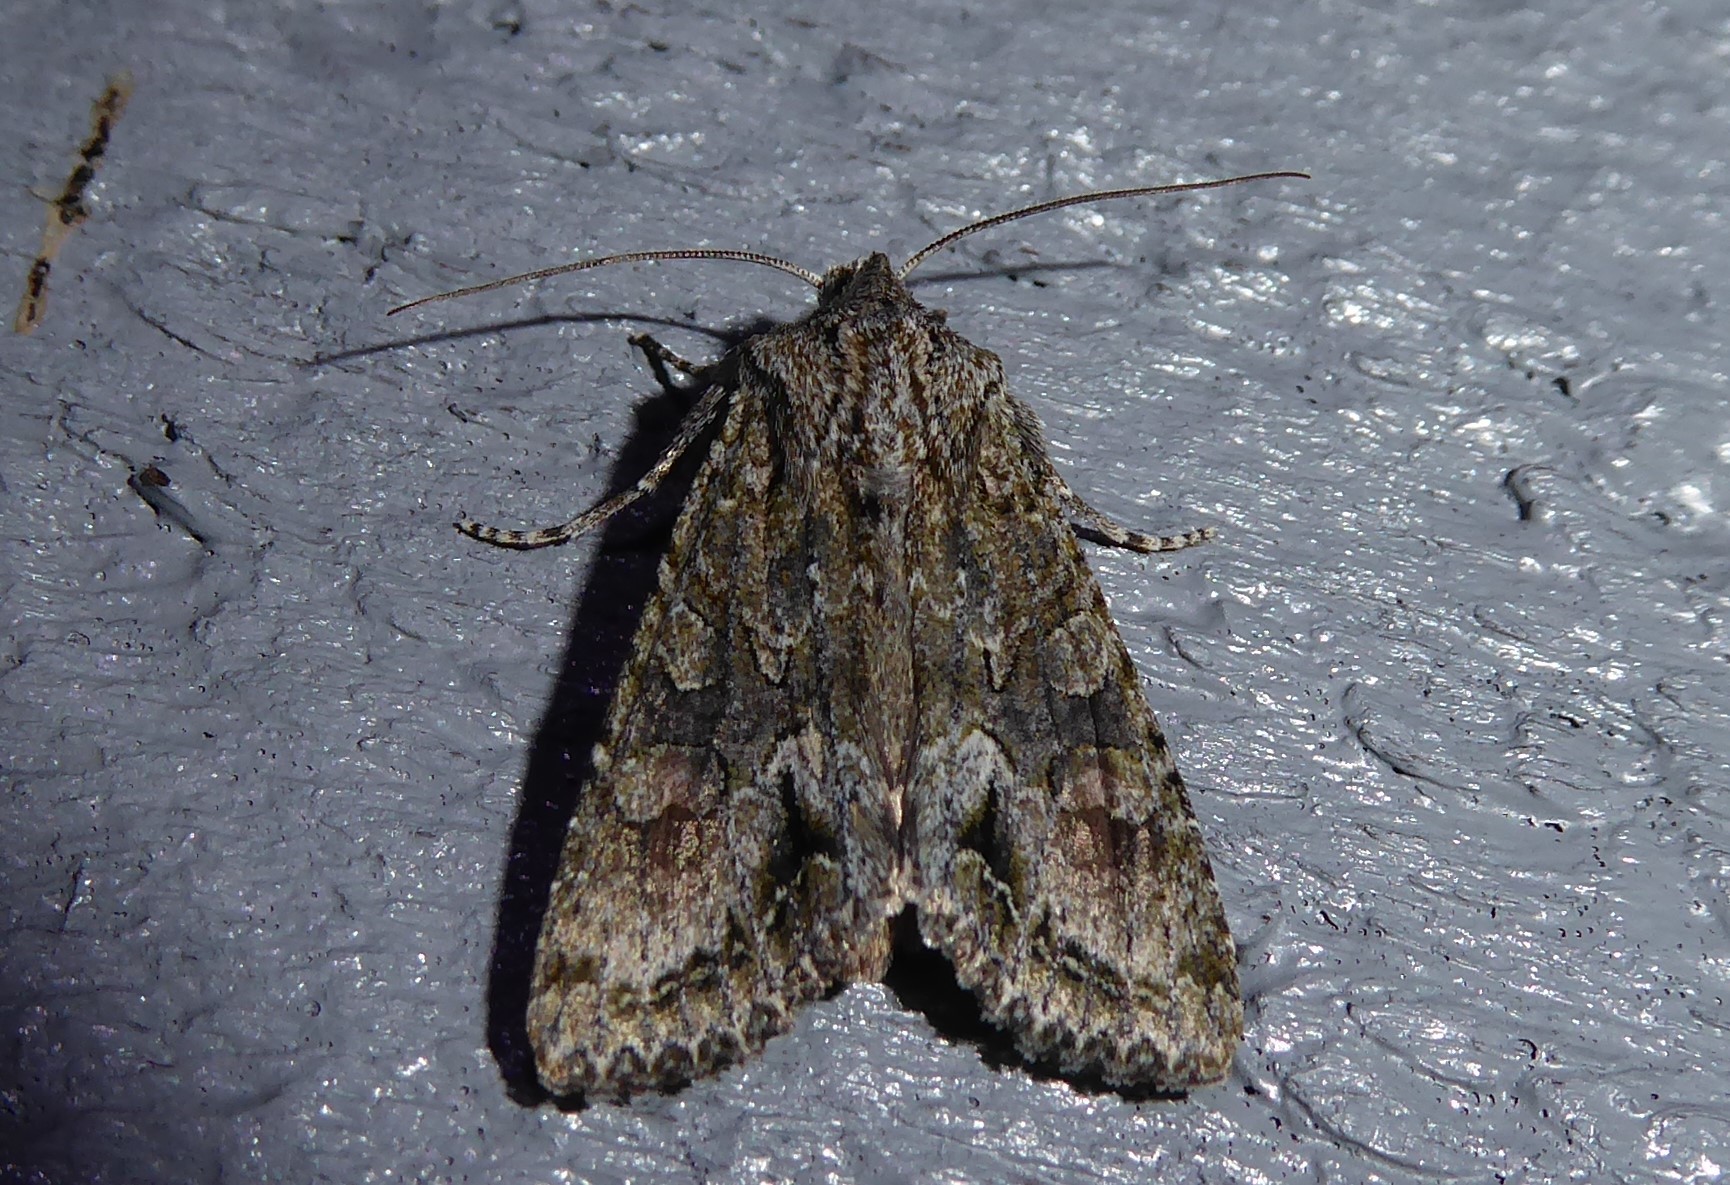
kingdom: Animalia
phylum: Arthropoda
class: Insecta
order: Lepidoptera
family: Noctuidae
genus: Ichneutica
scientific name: Ichneutica mutans
